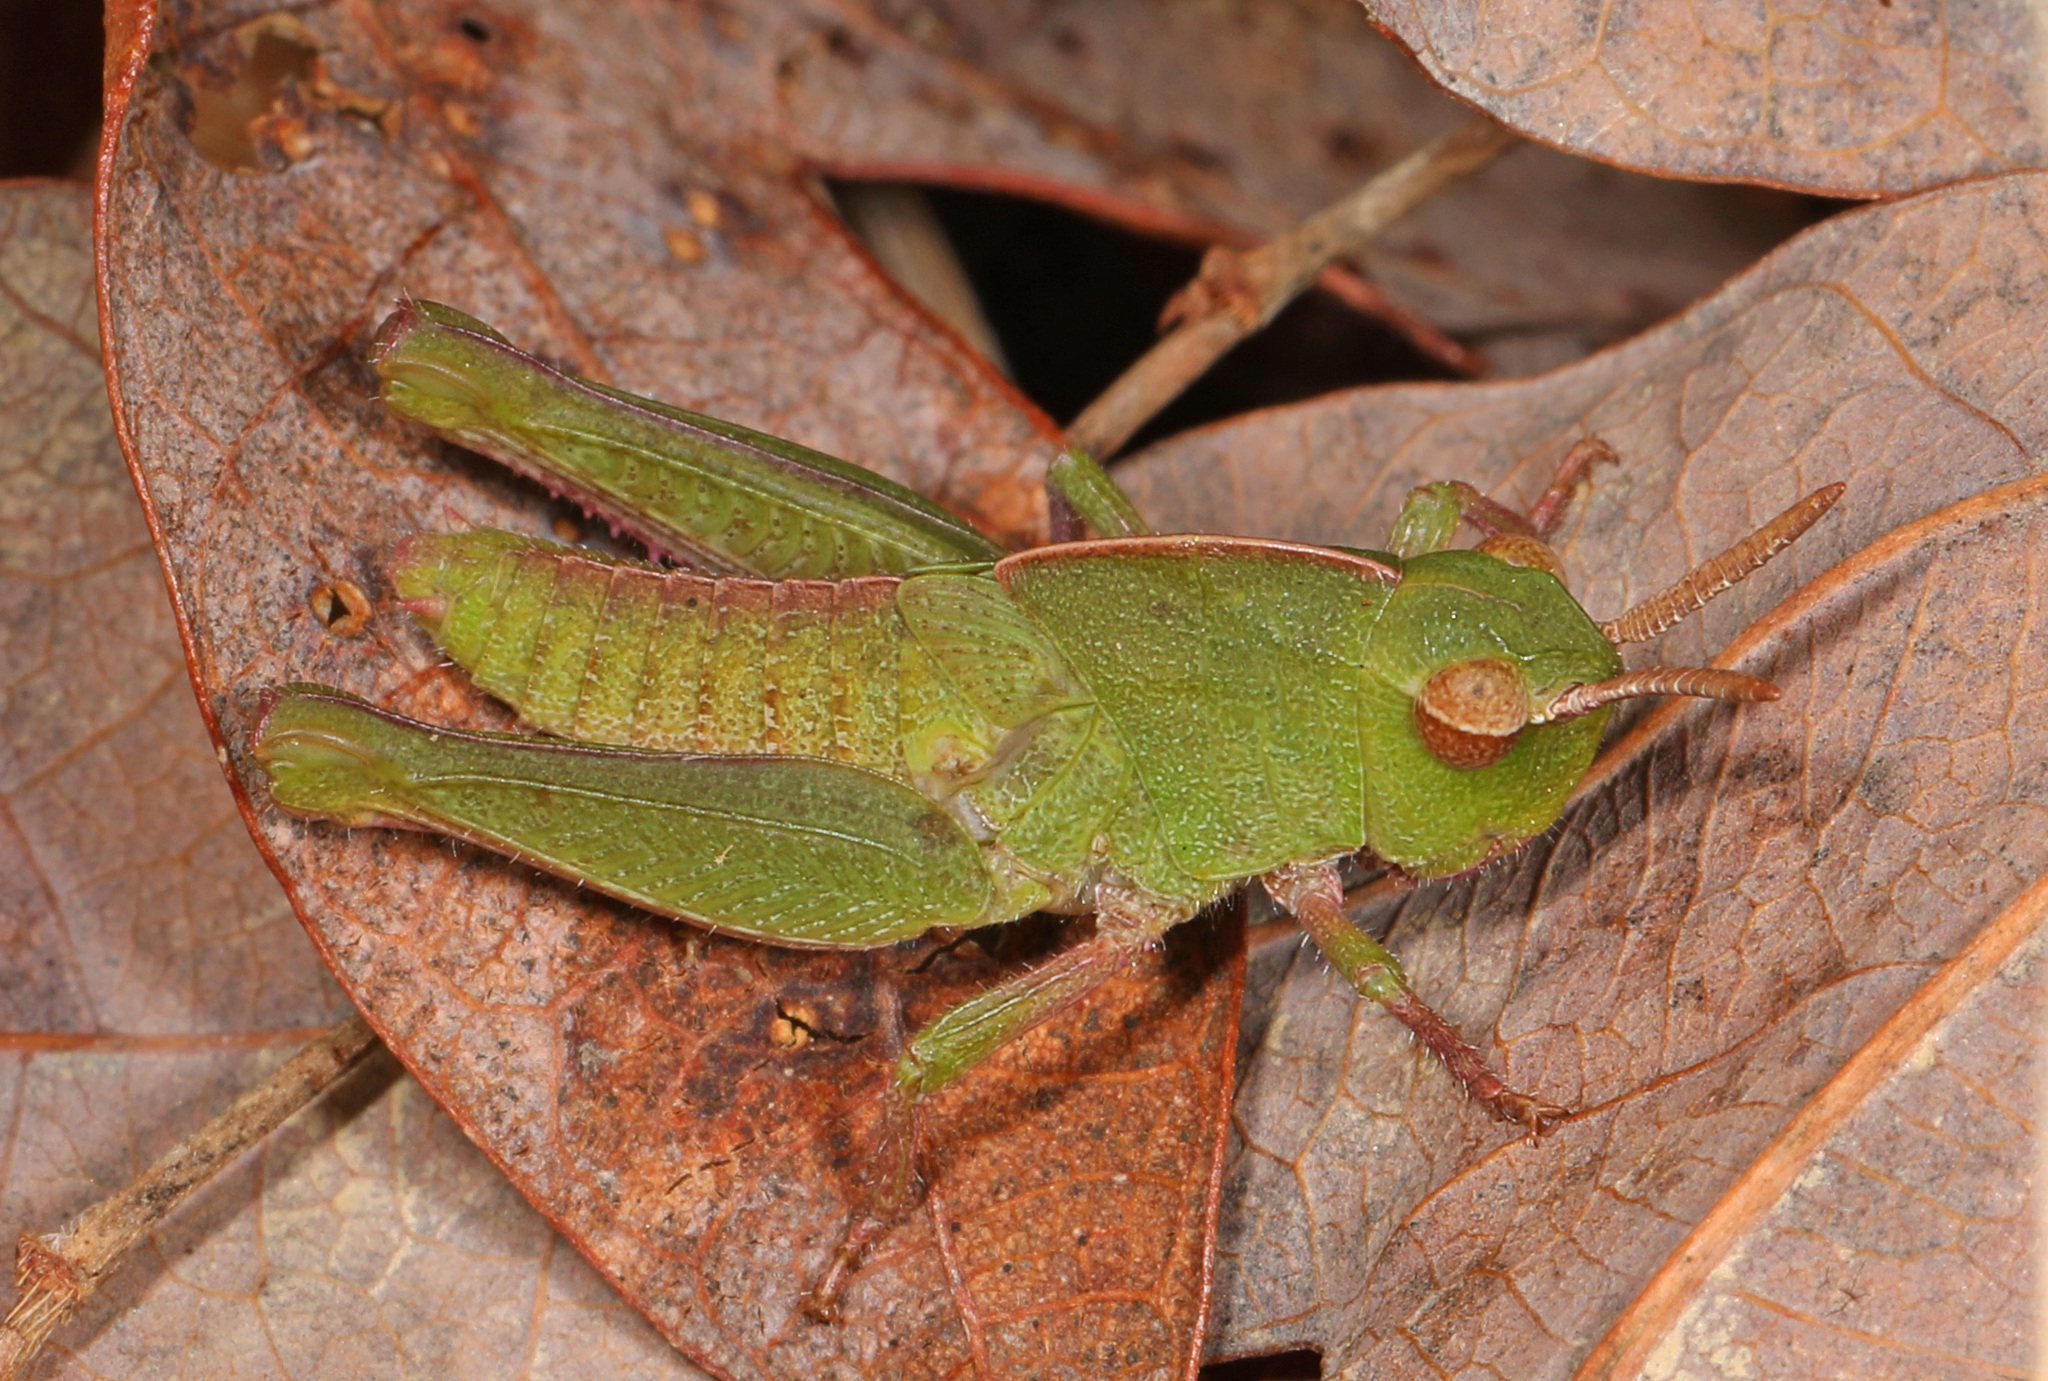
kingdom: Animalia
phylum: Arthropoda
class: Insecta
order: Orthoptera
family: Acrididae
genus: Chortophaga
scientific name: Chortophaga viridifasciata
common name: Green-striped grasshopper
